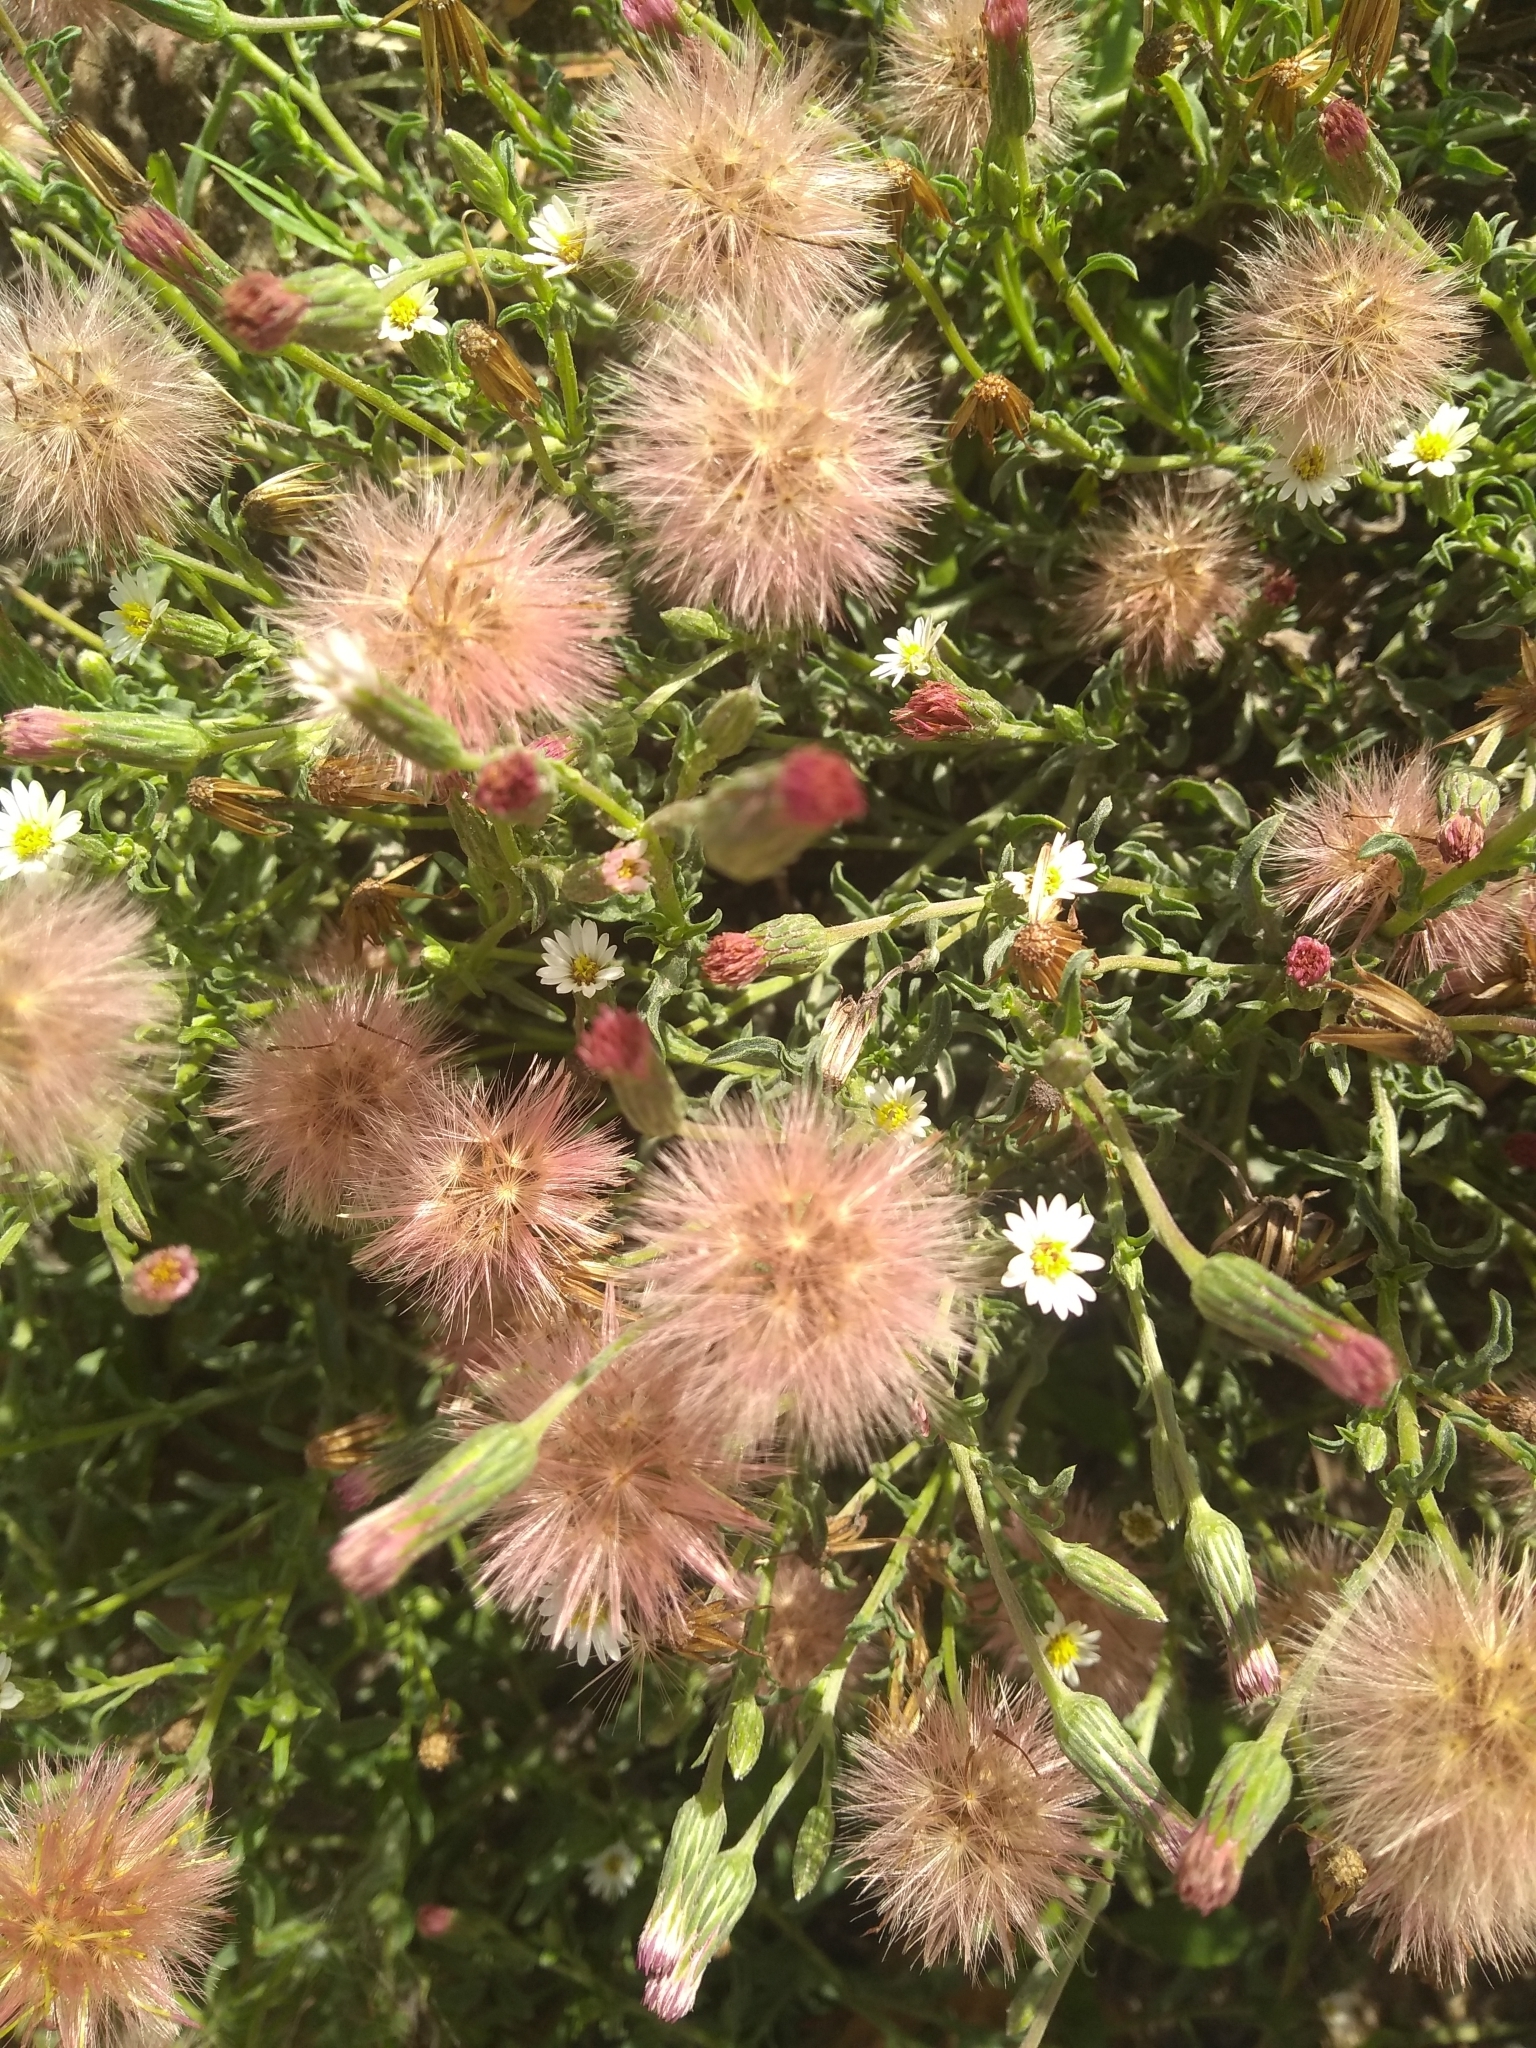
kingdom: Plantae
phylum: Tracheophyta
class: Magnoliopsida
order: Asterales
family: Asteraceae
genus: Noticastrum
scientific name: Noticastrum diffusum
